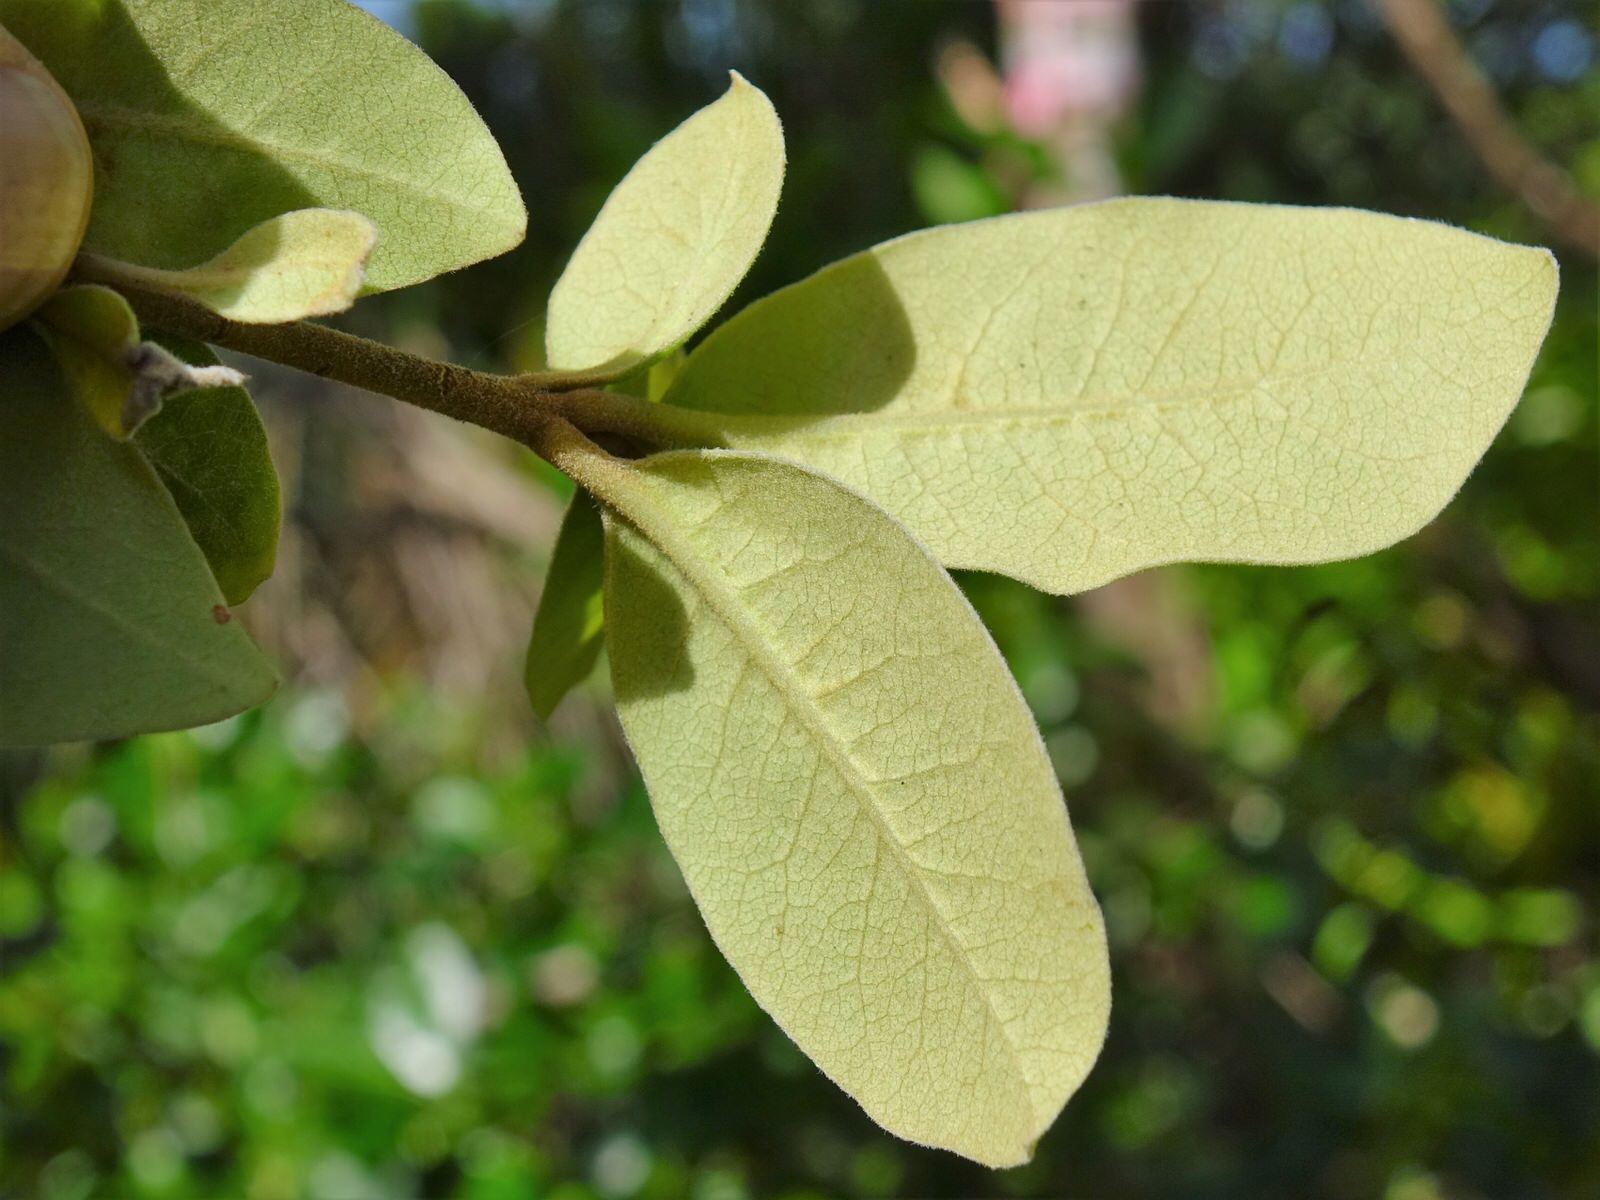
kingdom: Plantae
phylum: Tracheophyta
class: Magnoliopsida
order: Apiales
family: Pittosporaceae
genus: Pittosporum
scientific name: Pittosporum ellipticum
